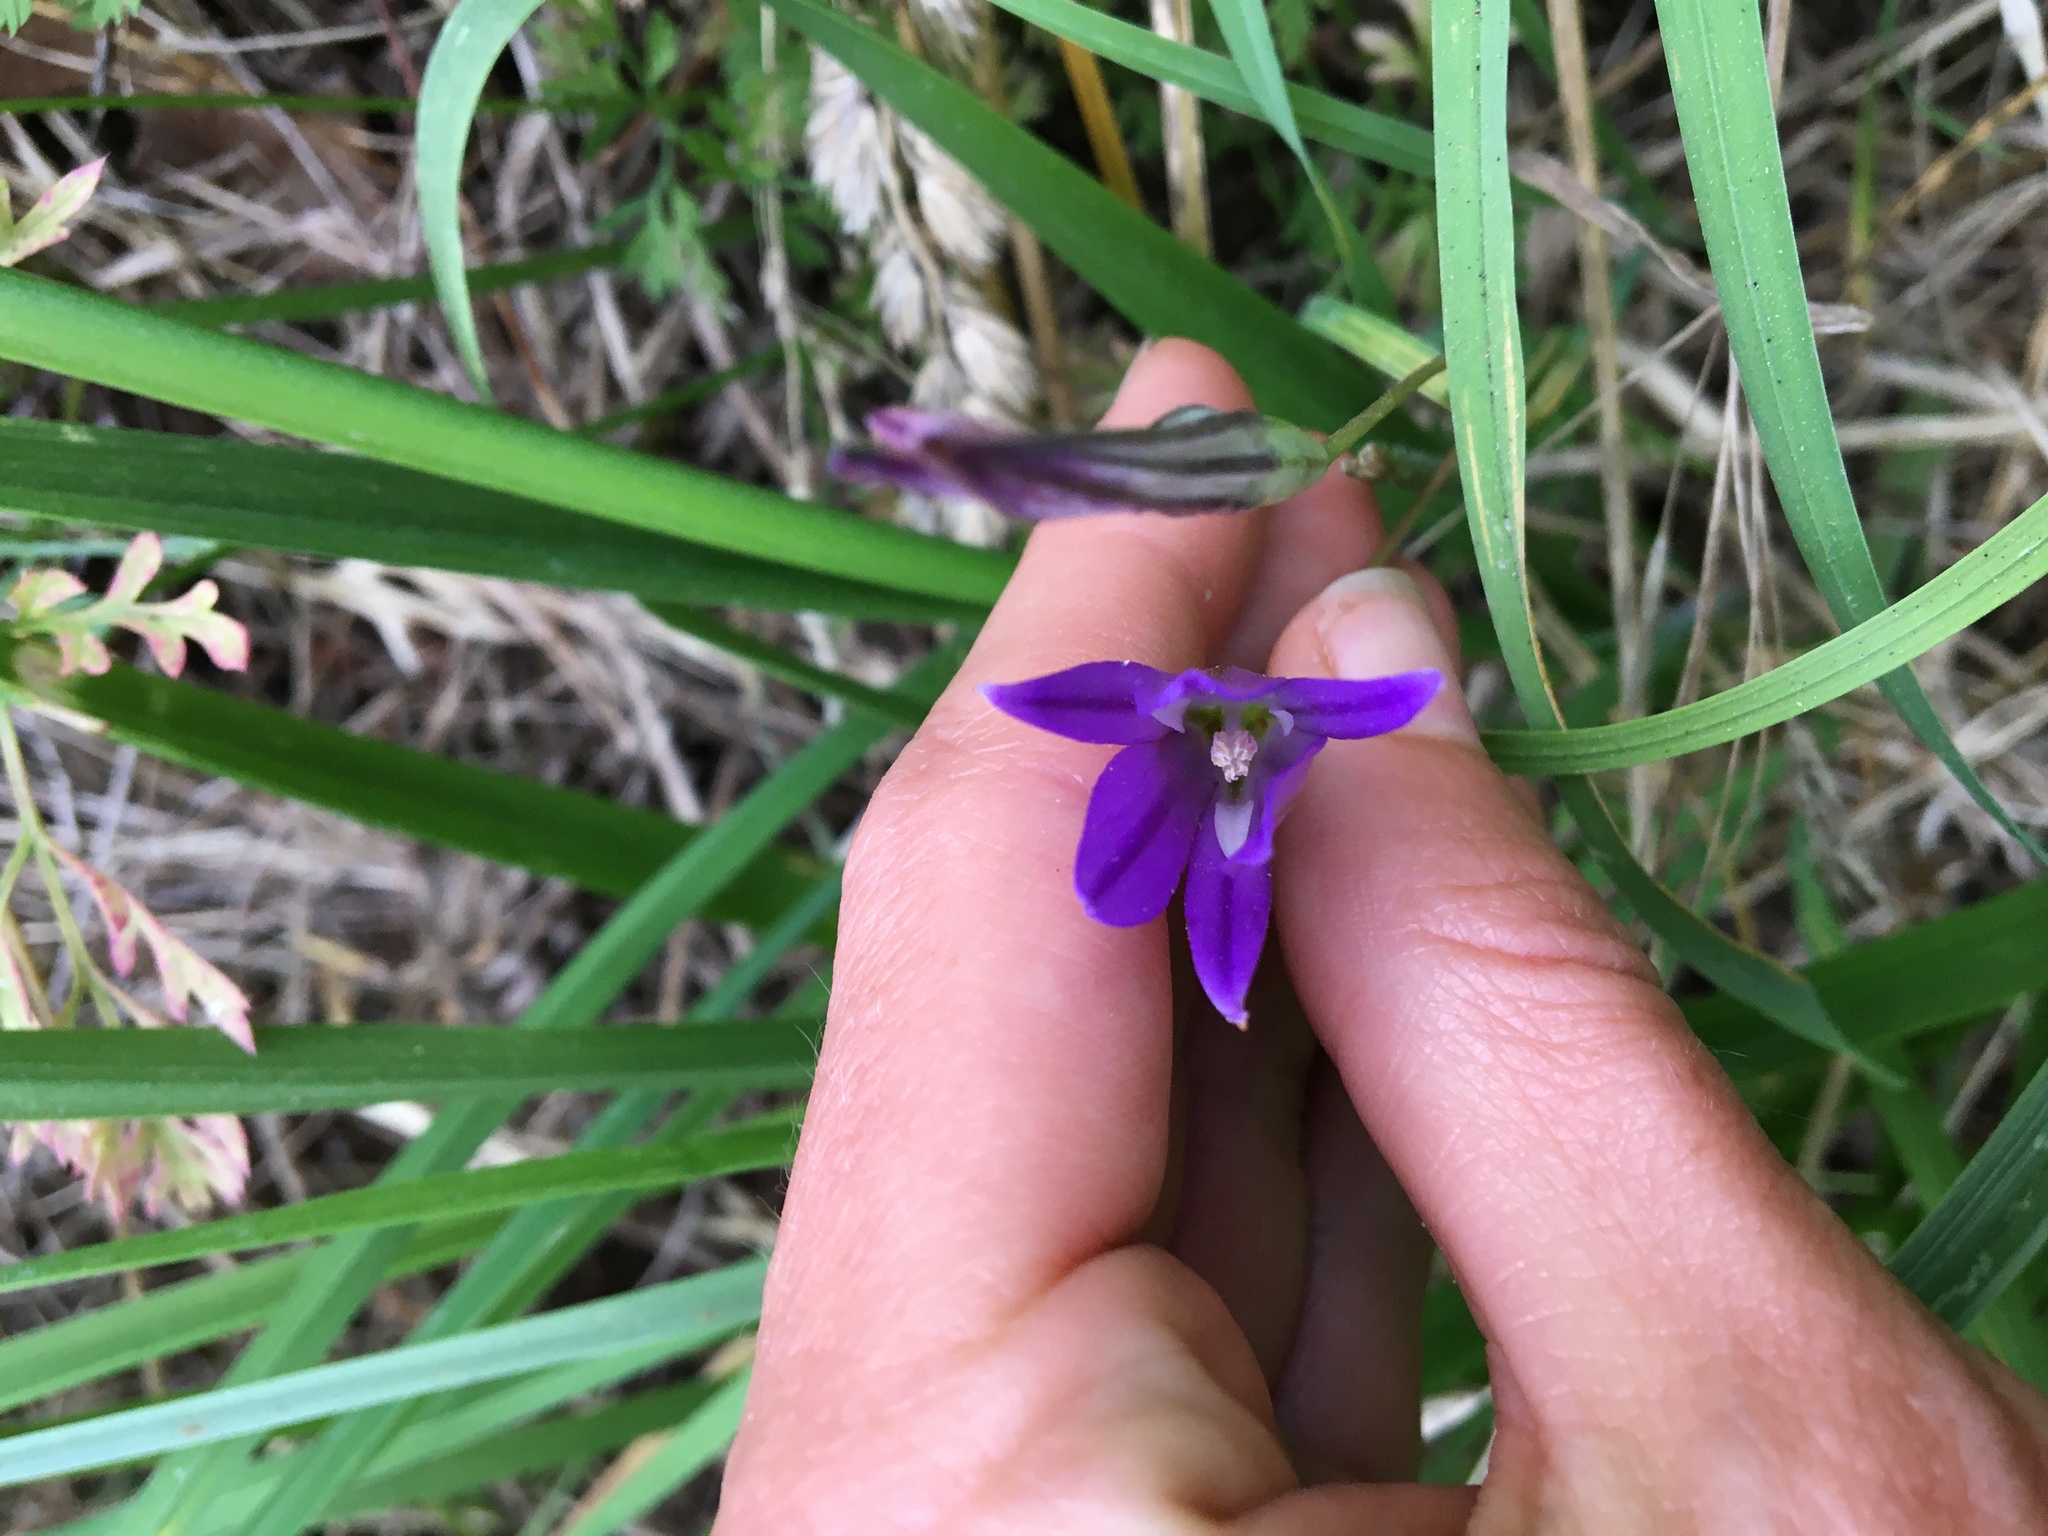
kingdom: Plantae
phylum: Tracheophyta
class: Liliopsida
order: Asparagales
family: Asparagaceae
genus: Brodiaea
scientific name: Brodiaea elegans
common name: Elegant cluster-lily
